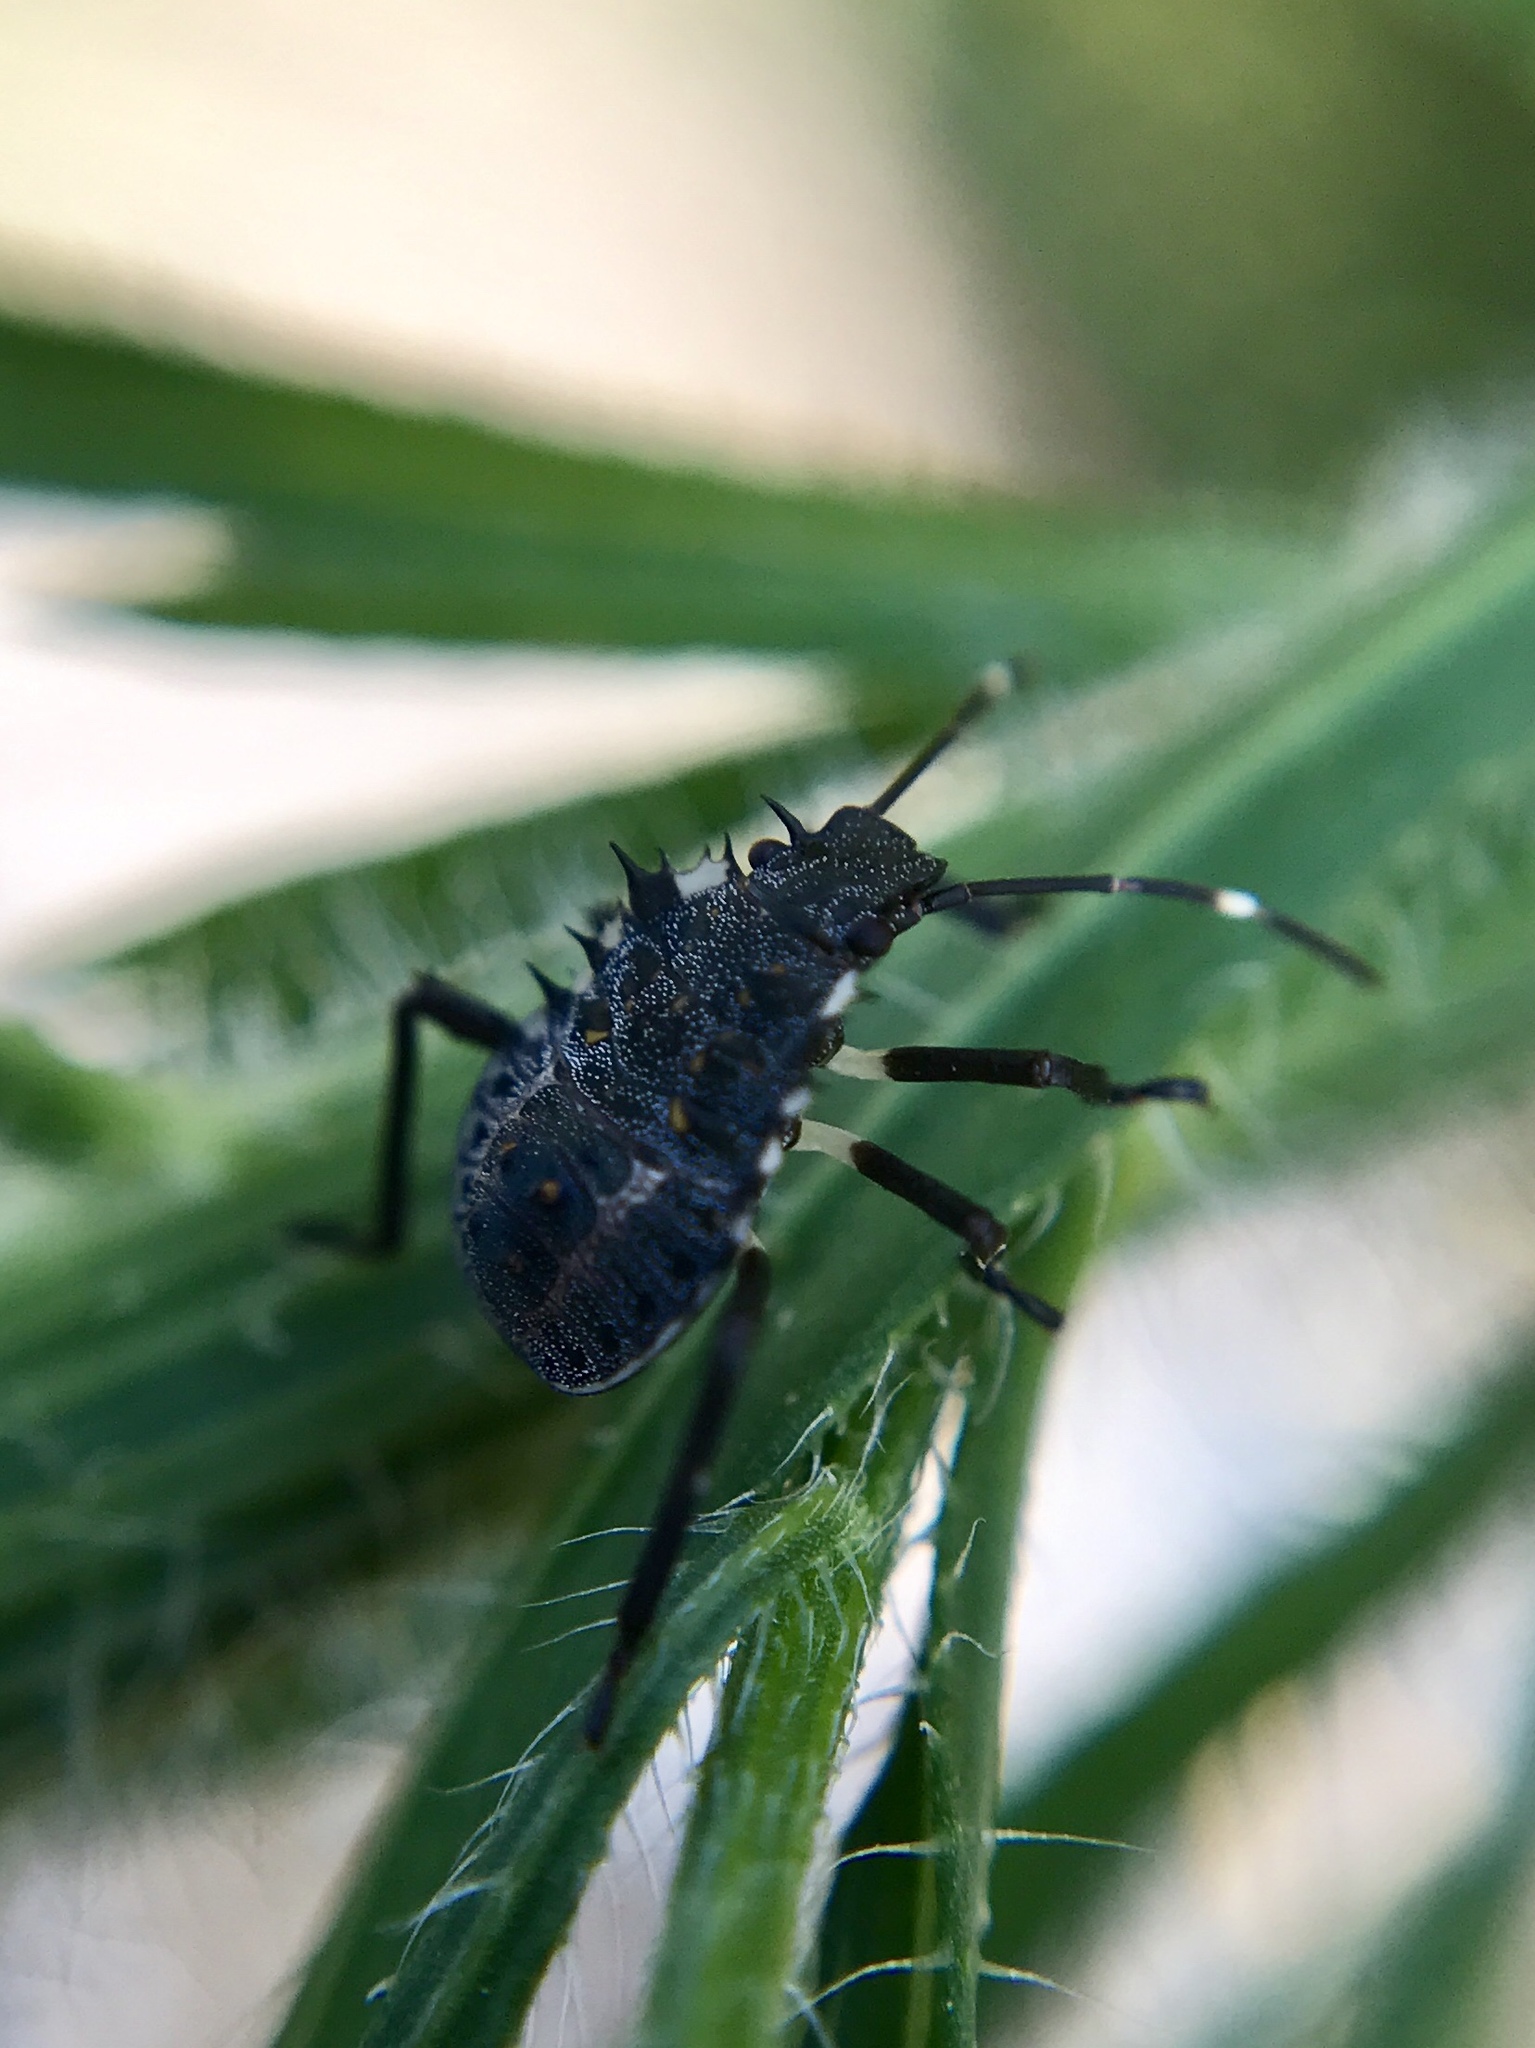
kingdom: Animalia
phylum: Arthropoda
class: Insecta
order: Hemiptera
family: Pentatomidae
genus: Halyomorpha
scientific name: Halyomorpha halys
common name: Brown marmorated stink bug
